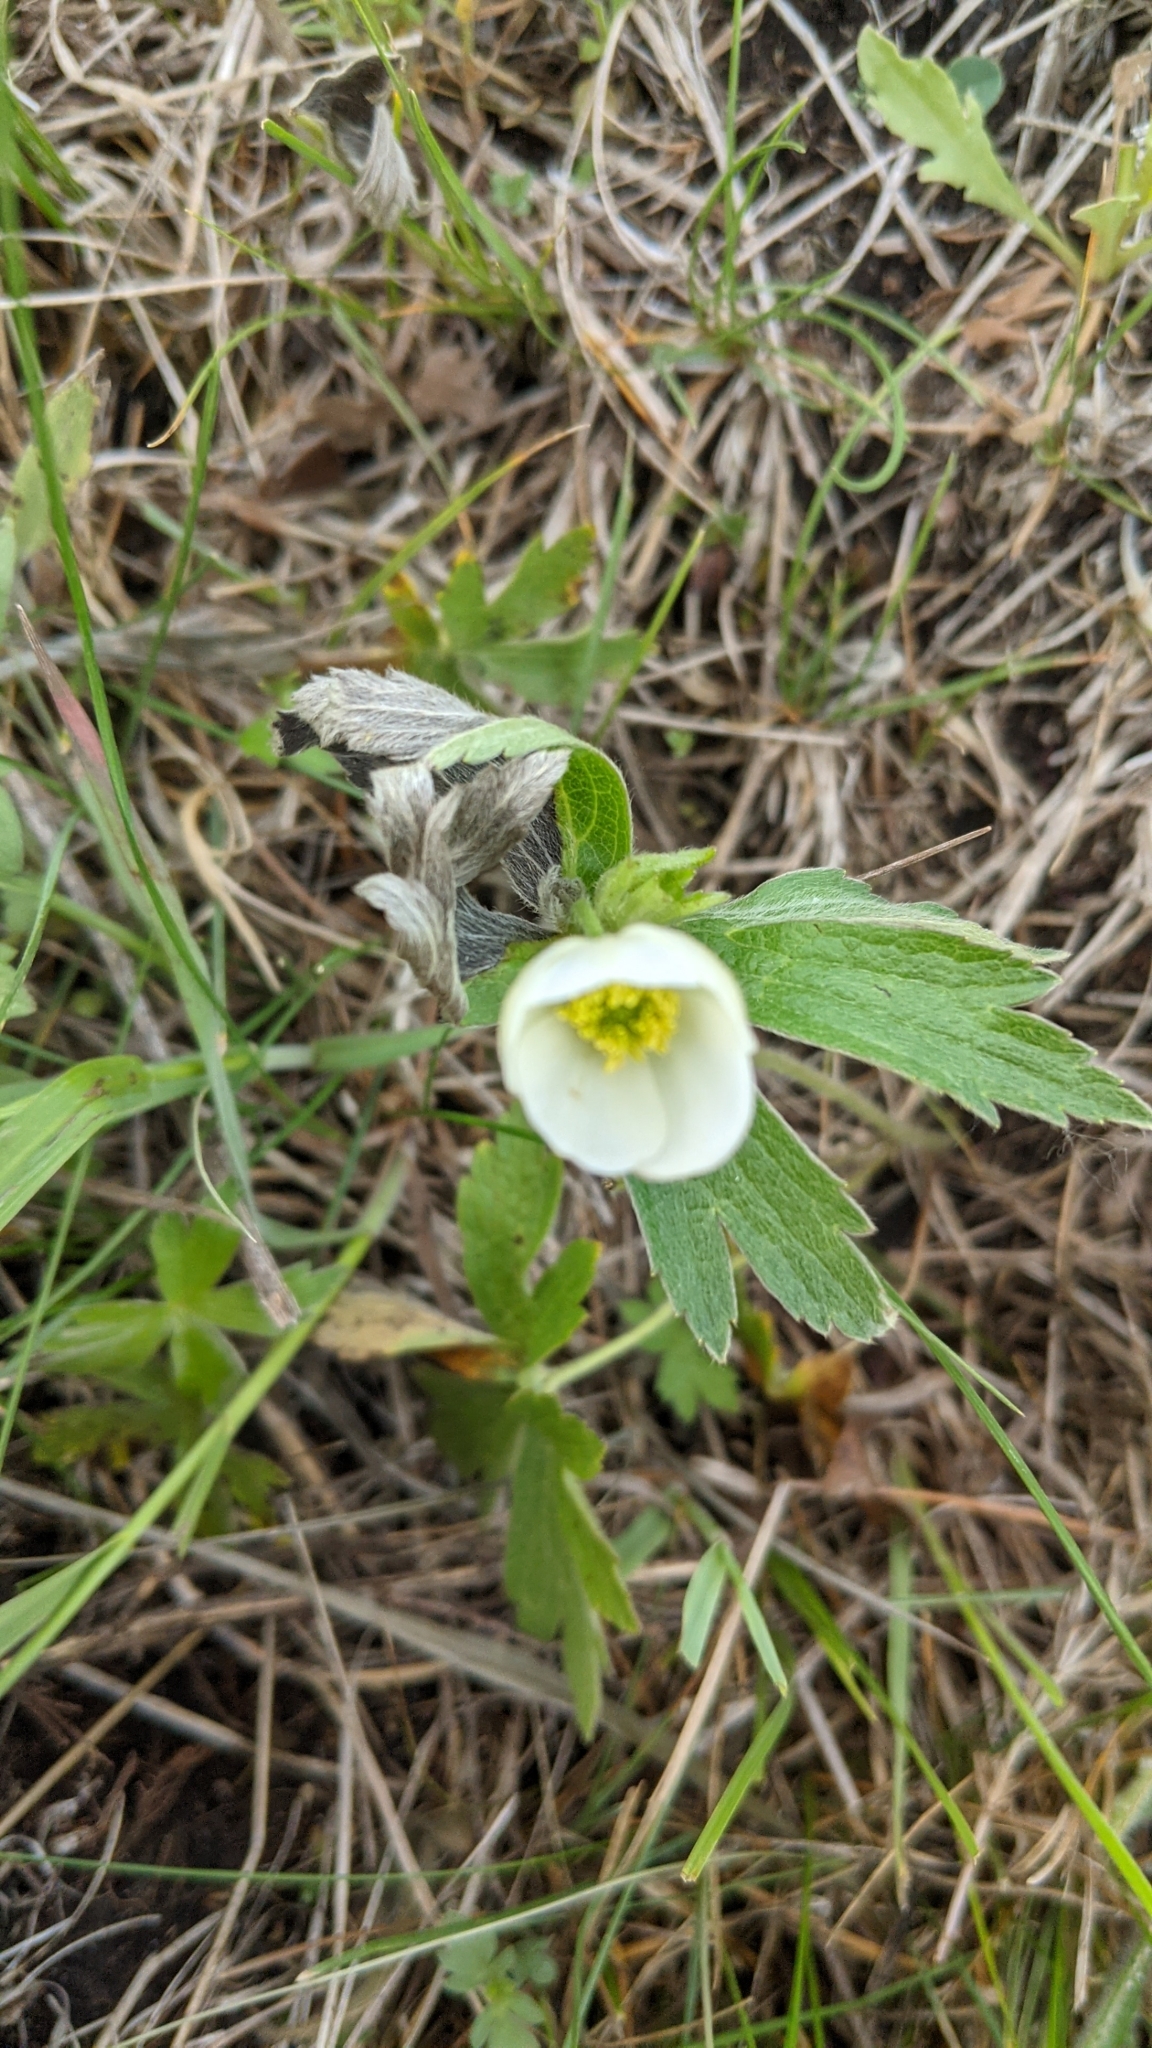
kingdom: Plantae
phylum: Tracheophyta
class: Magnoliopsida
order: Ranunculales
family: Ranunculaceae
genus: Anemonastrum
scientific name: Anemonastrum canadense
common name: Canada anemone
